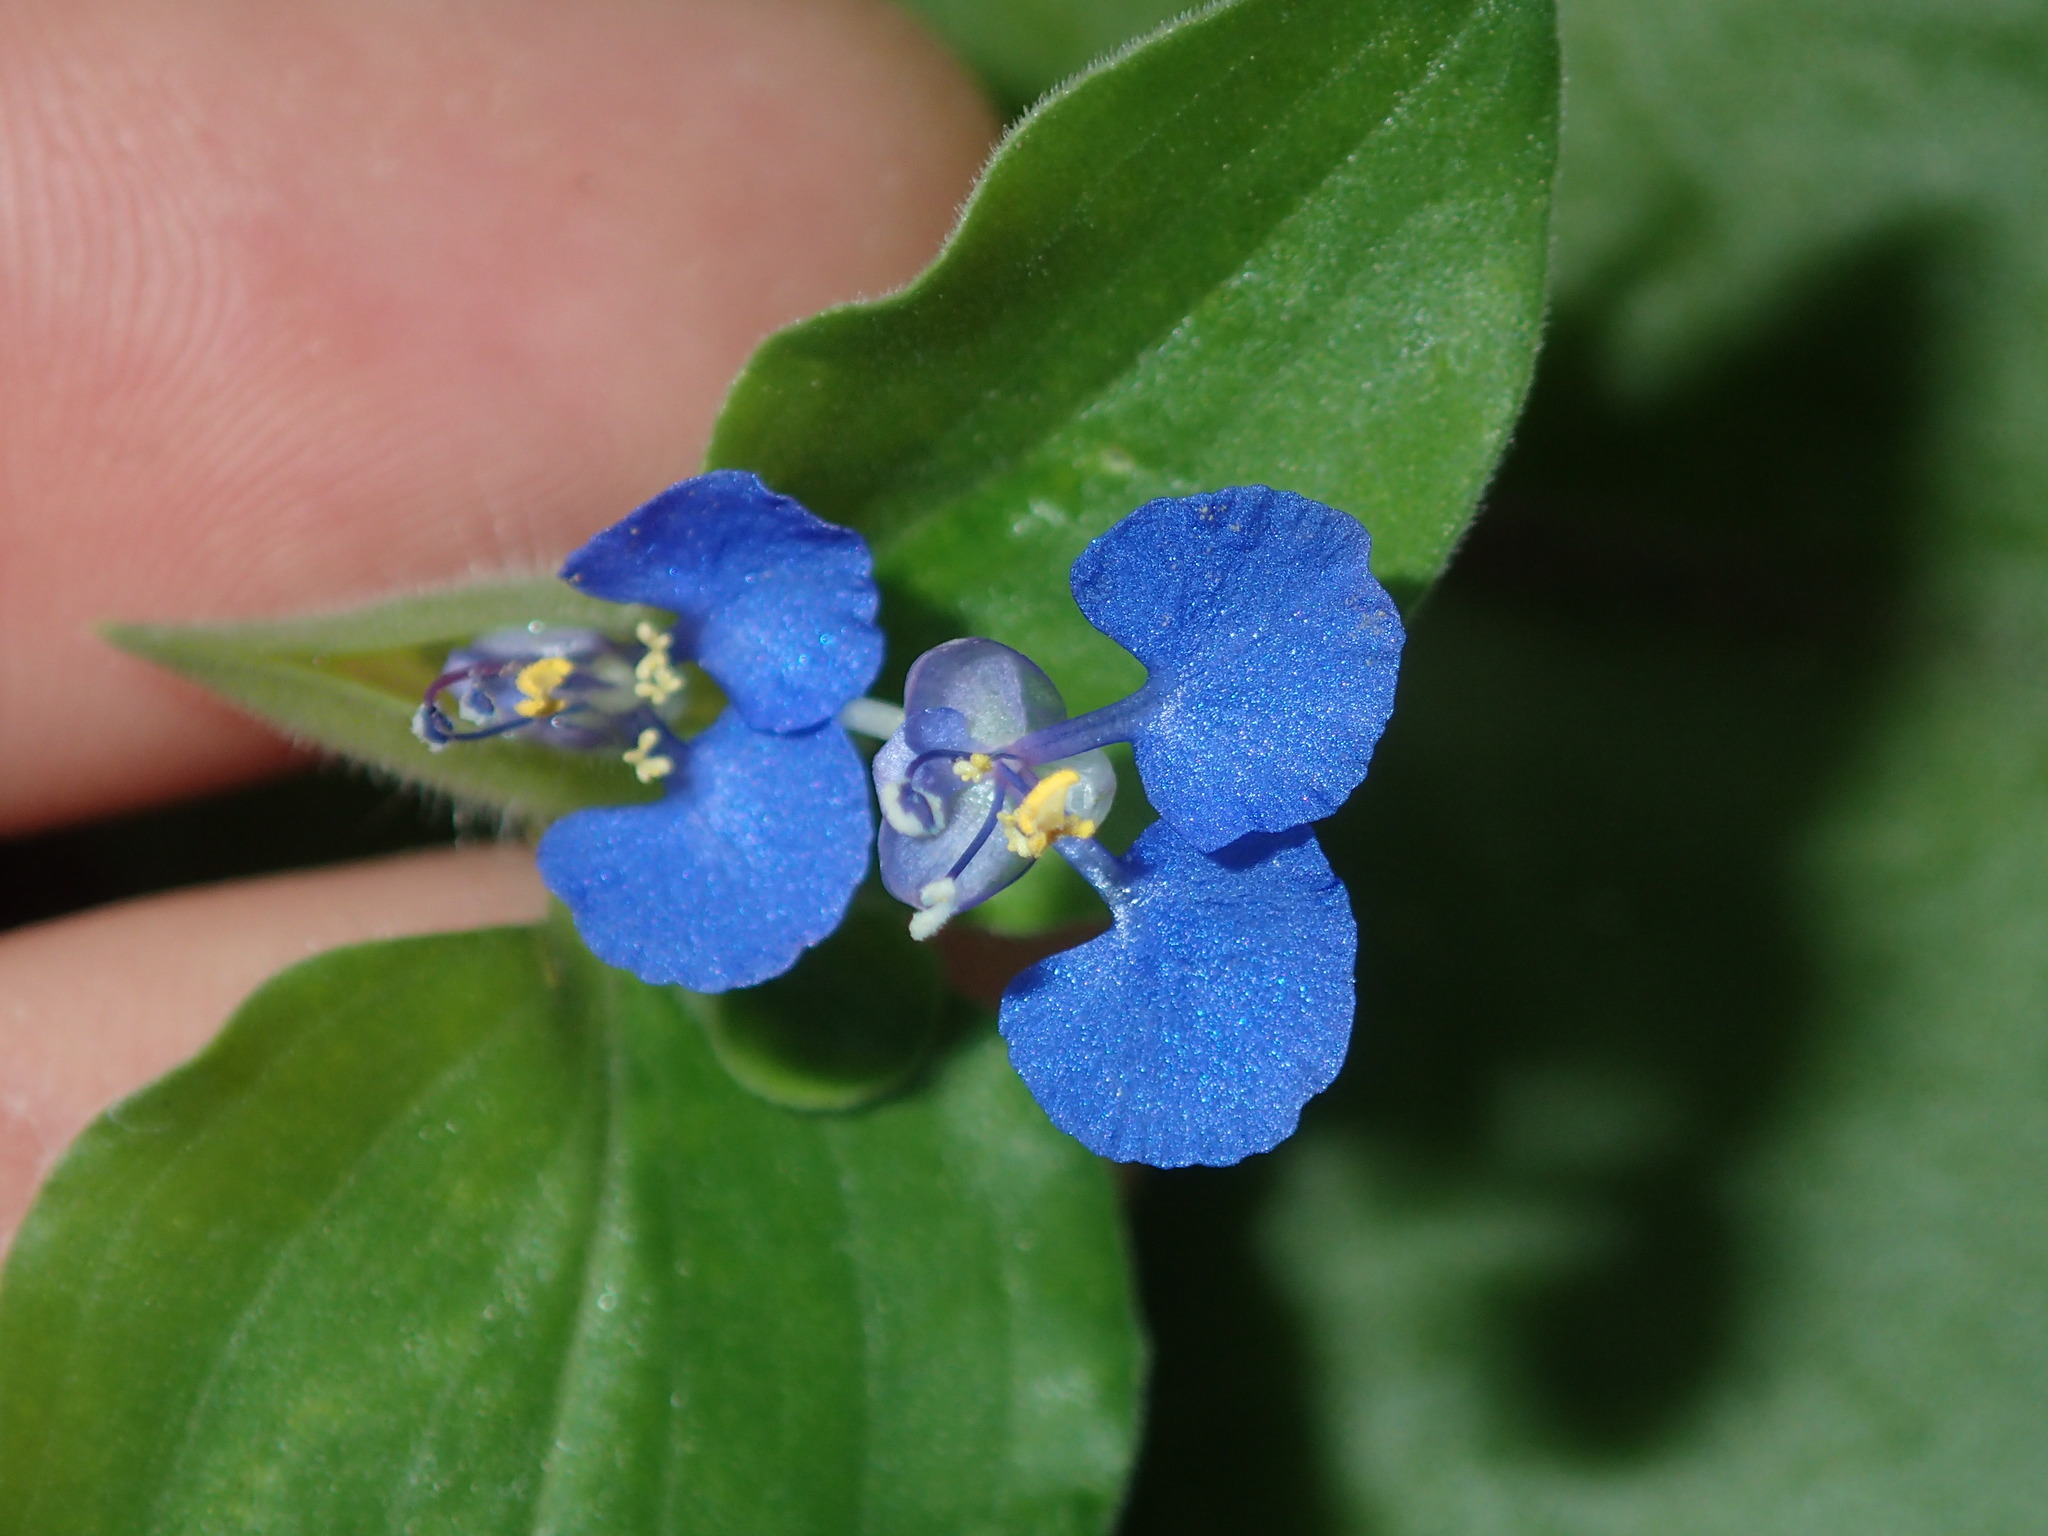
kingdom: Plantae
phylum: Tracheophyta
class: Liliopsida
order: Commelinales
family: Commelinaceae
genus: Commelina
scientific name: Commelina benghalensis
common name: Jio
